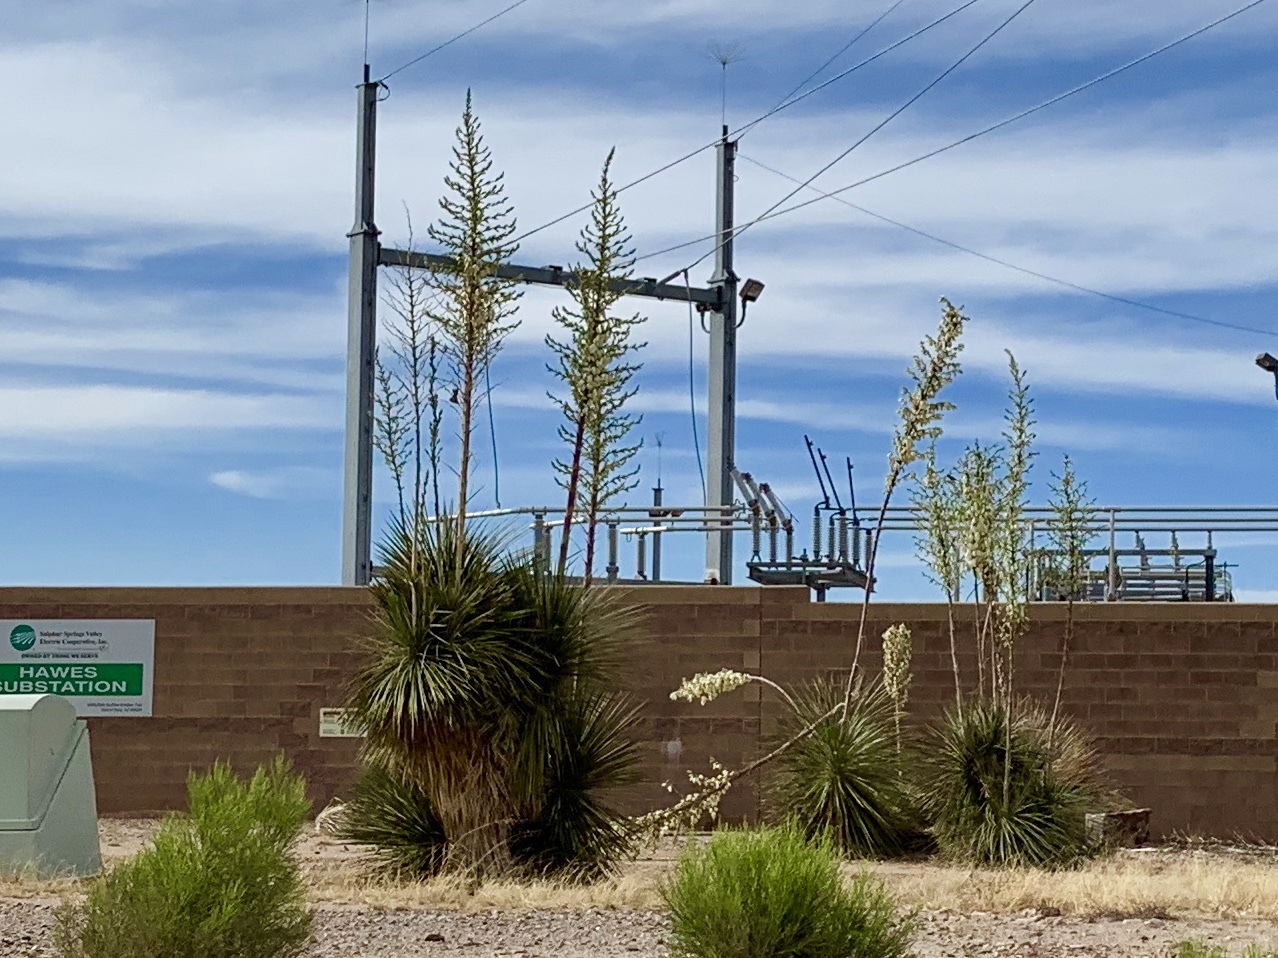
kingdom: Plantae
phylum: Tracheophyta
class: Liliopsida
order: Asparagales
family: Asparagaceae
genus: Yucca
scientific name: Yucca elata
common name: Palmella
